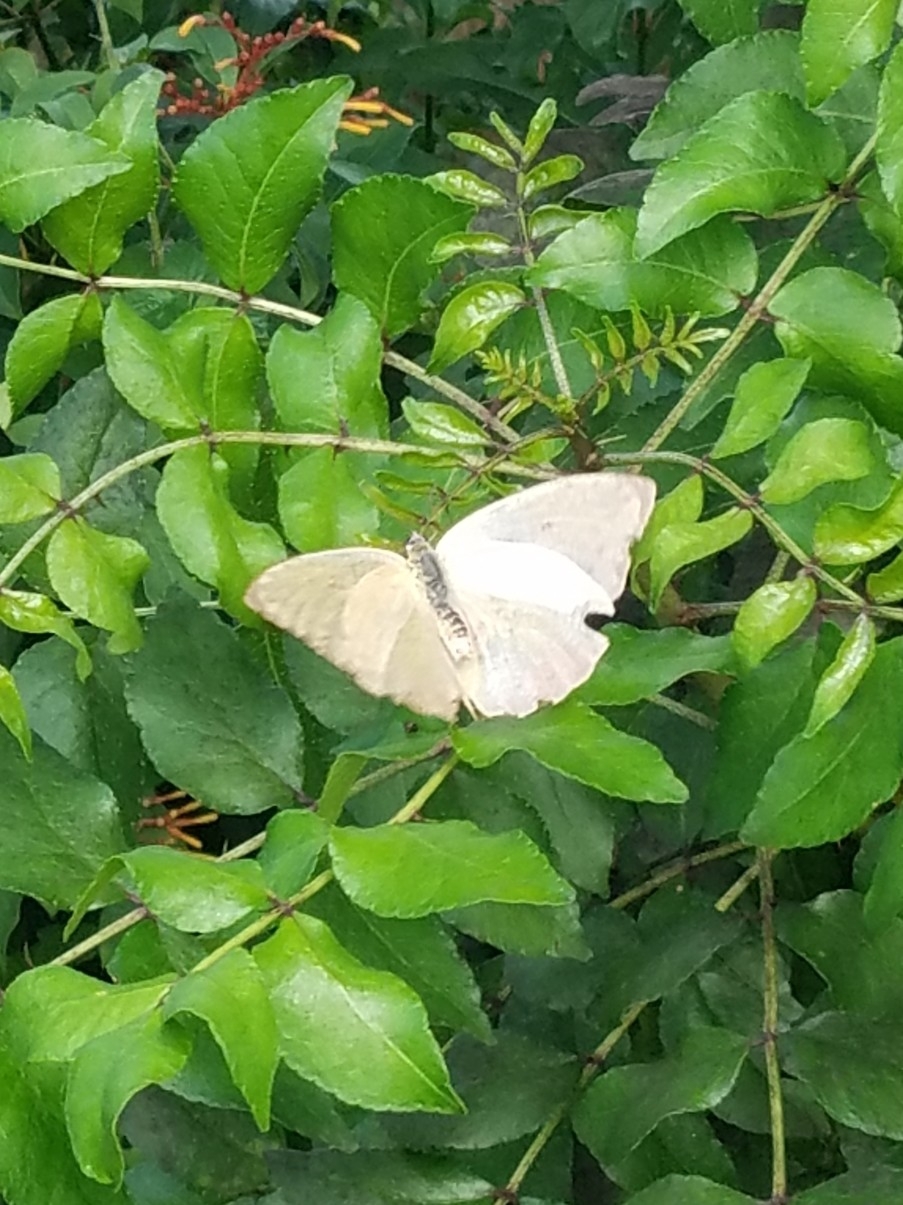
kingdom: Animalia
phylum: Arthropoda
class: Insecta
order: Lepidoptera
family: Pieridae
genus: Phoebis
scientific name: Phoebis philea
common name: Orange-barred giant sulphur
